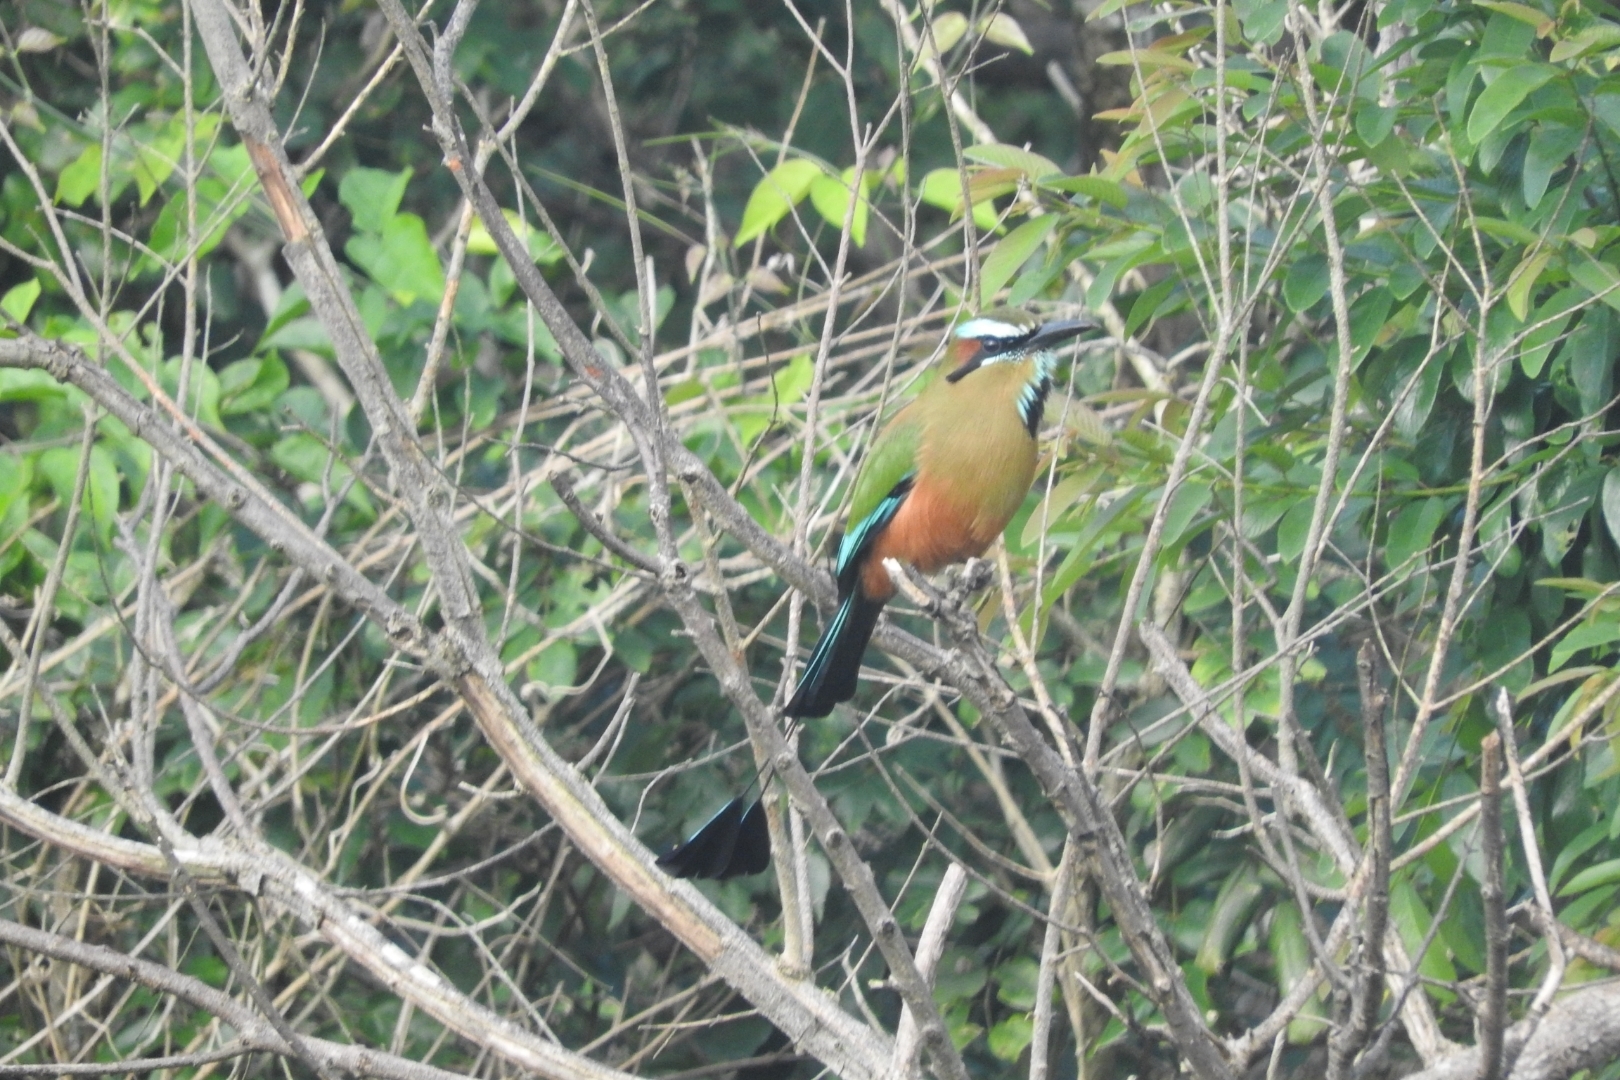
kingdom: Animalia
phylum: Chordata
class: Aves
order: Coraciiformes
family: Momotidae
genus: Eumomota
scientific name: Eumomota superciliosa
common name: Turquoise-browed motmot
